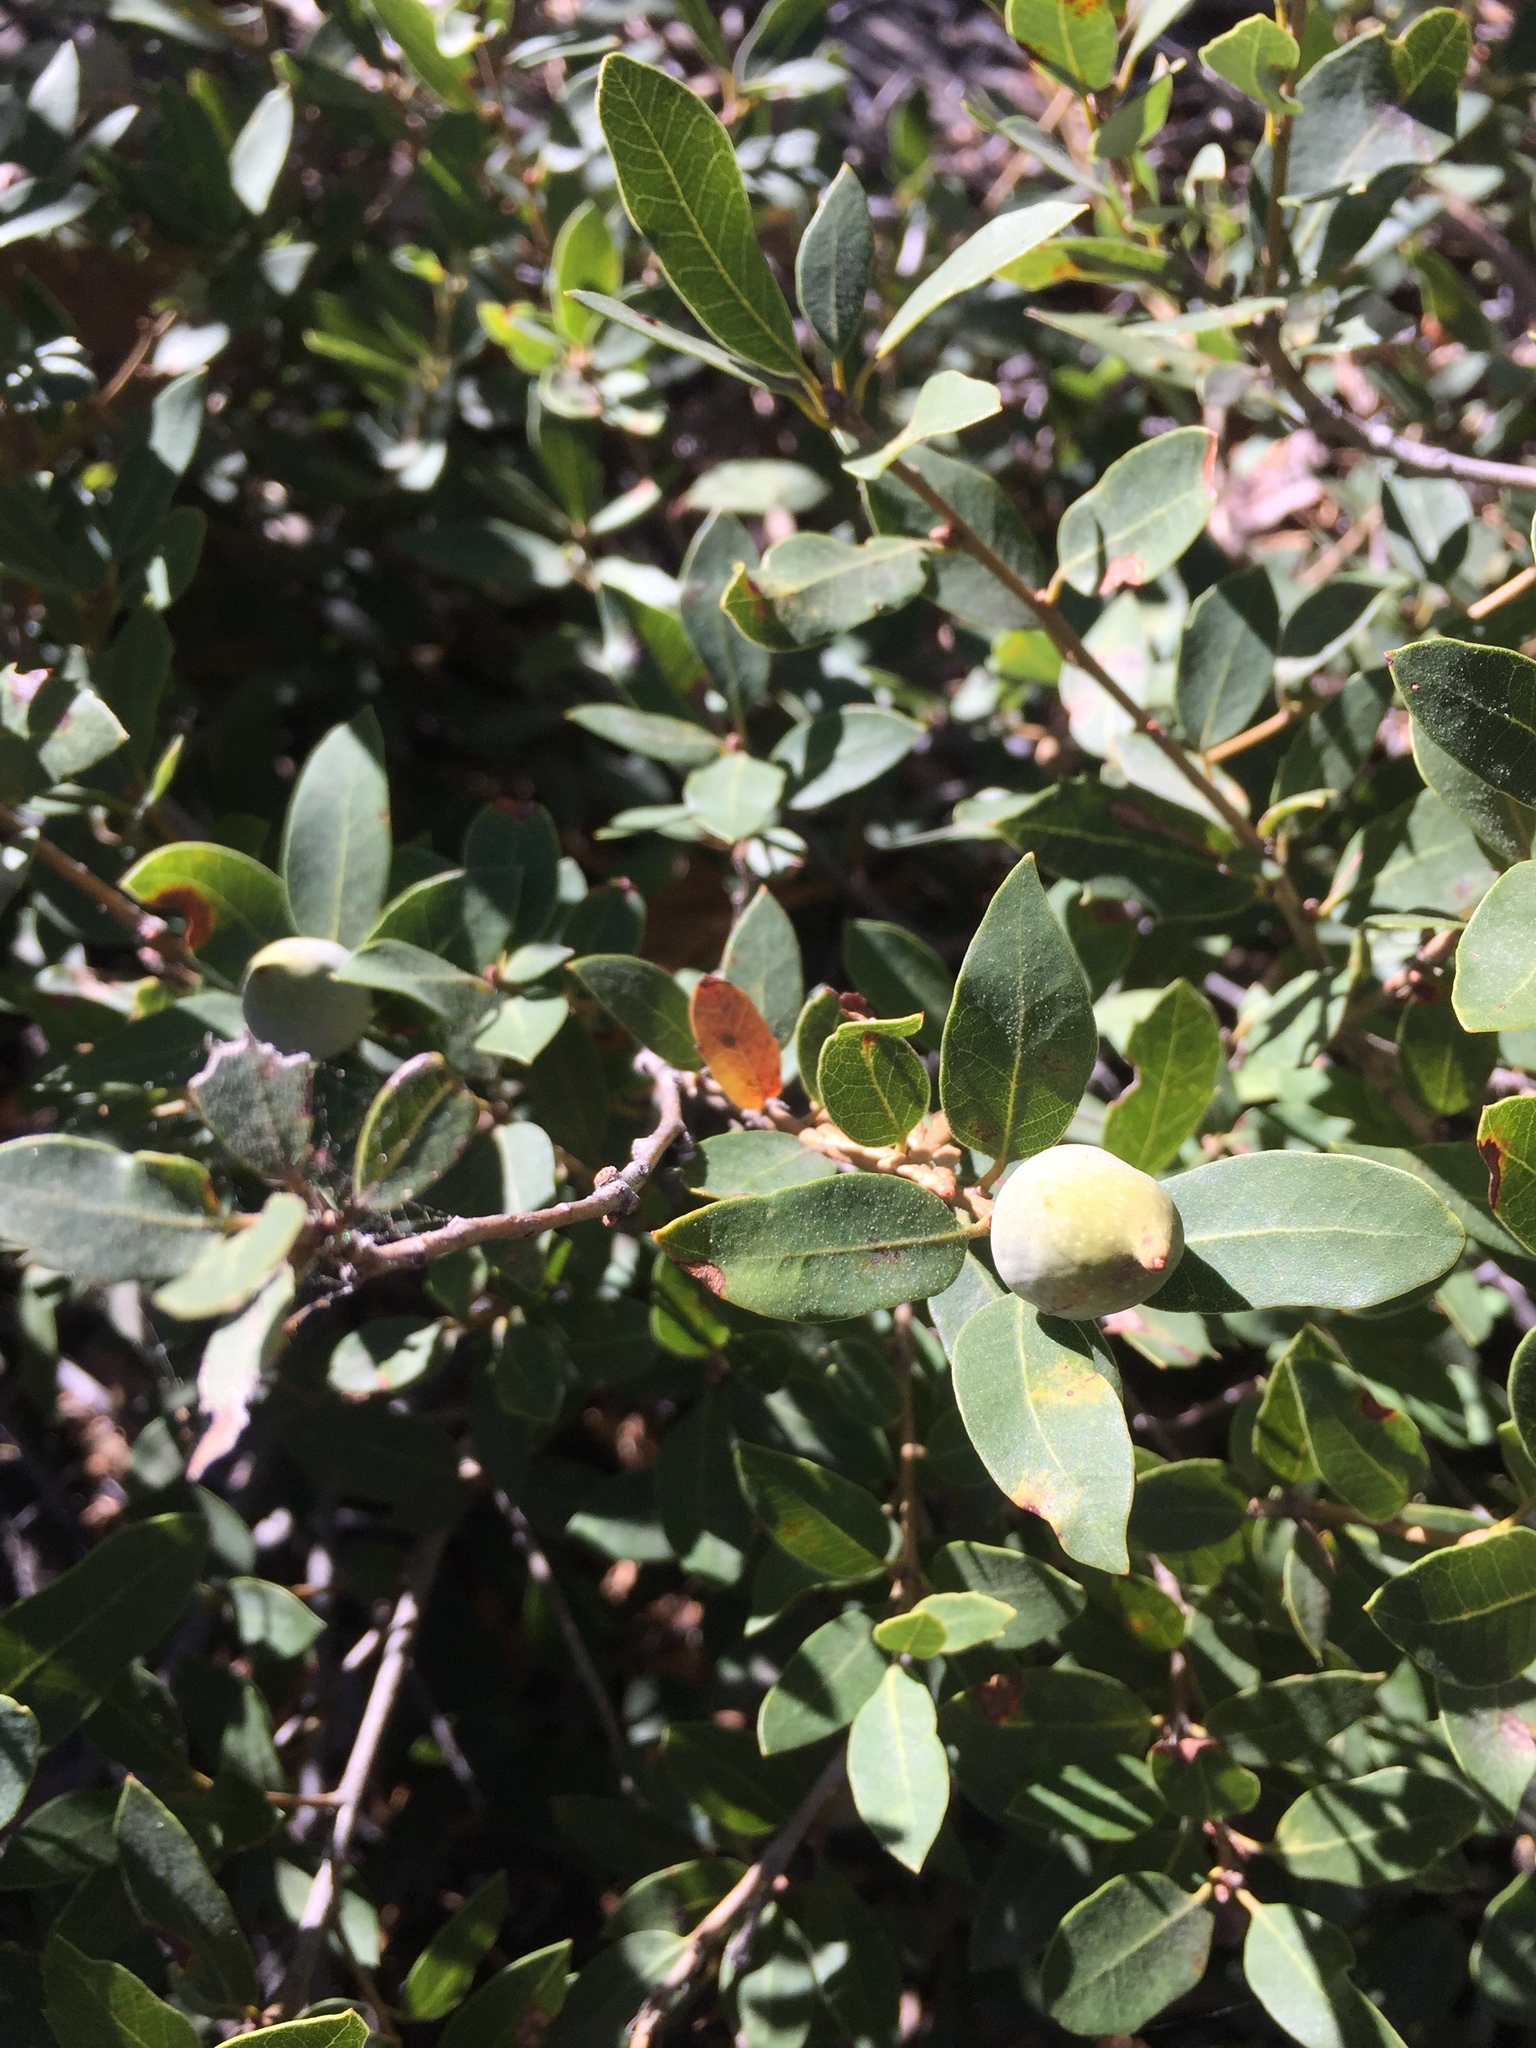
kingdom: Plantae
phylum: Tracheophyta
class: Magnoliopsida
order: Fagales
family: Fagaceae
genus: Quercus
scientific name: Quercus vacciniifolia
